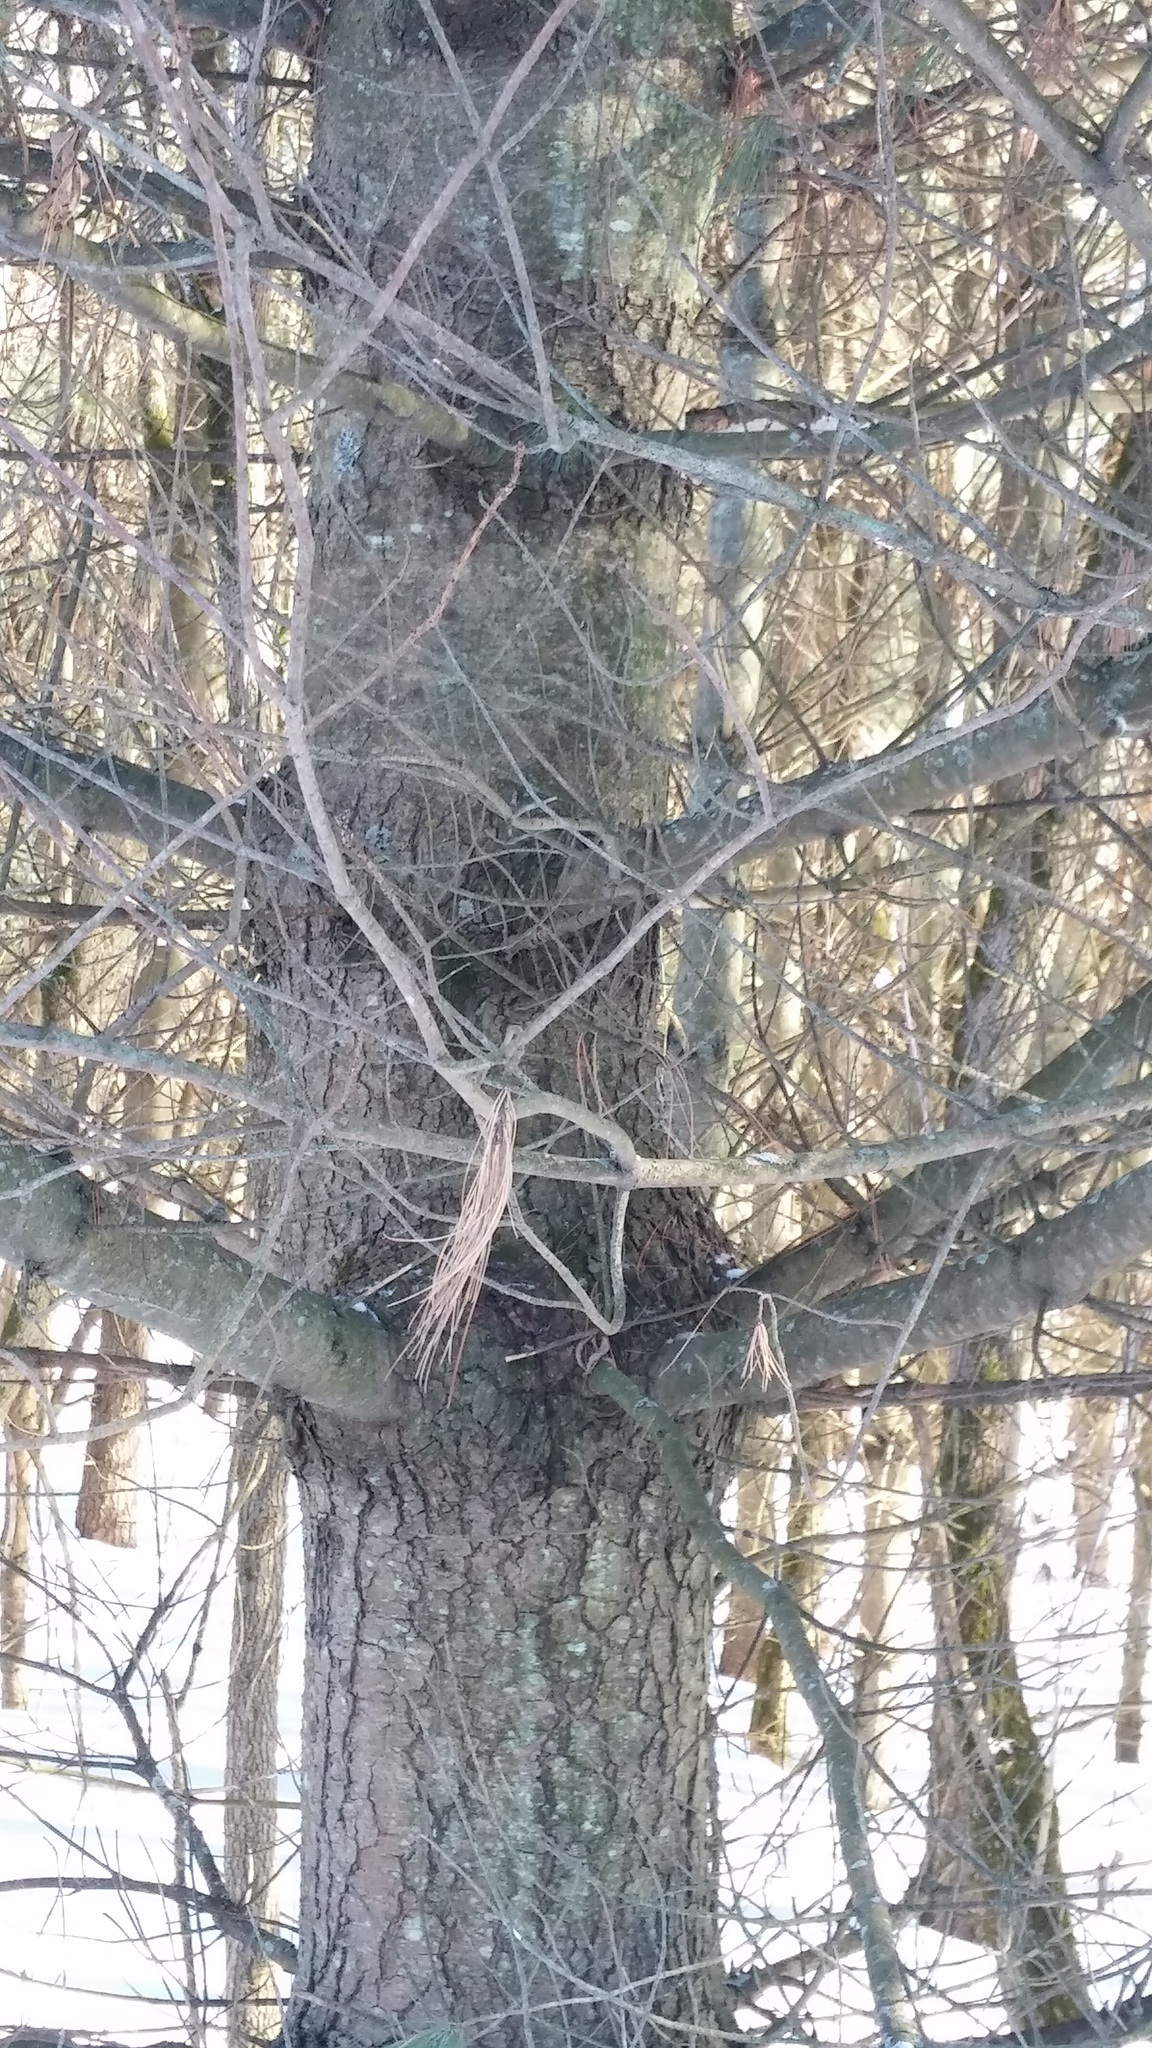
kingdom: Plantae
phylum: Tracheophyta
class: Pinopsida
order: Pinales
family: Pinaceae
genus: Pinus
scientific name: Pinus resinosa
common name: Norway pine
